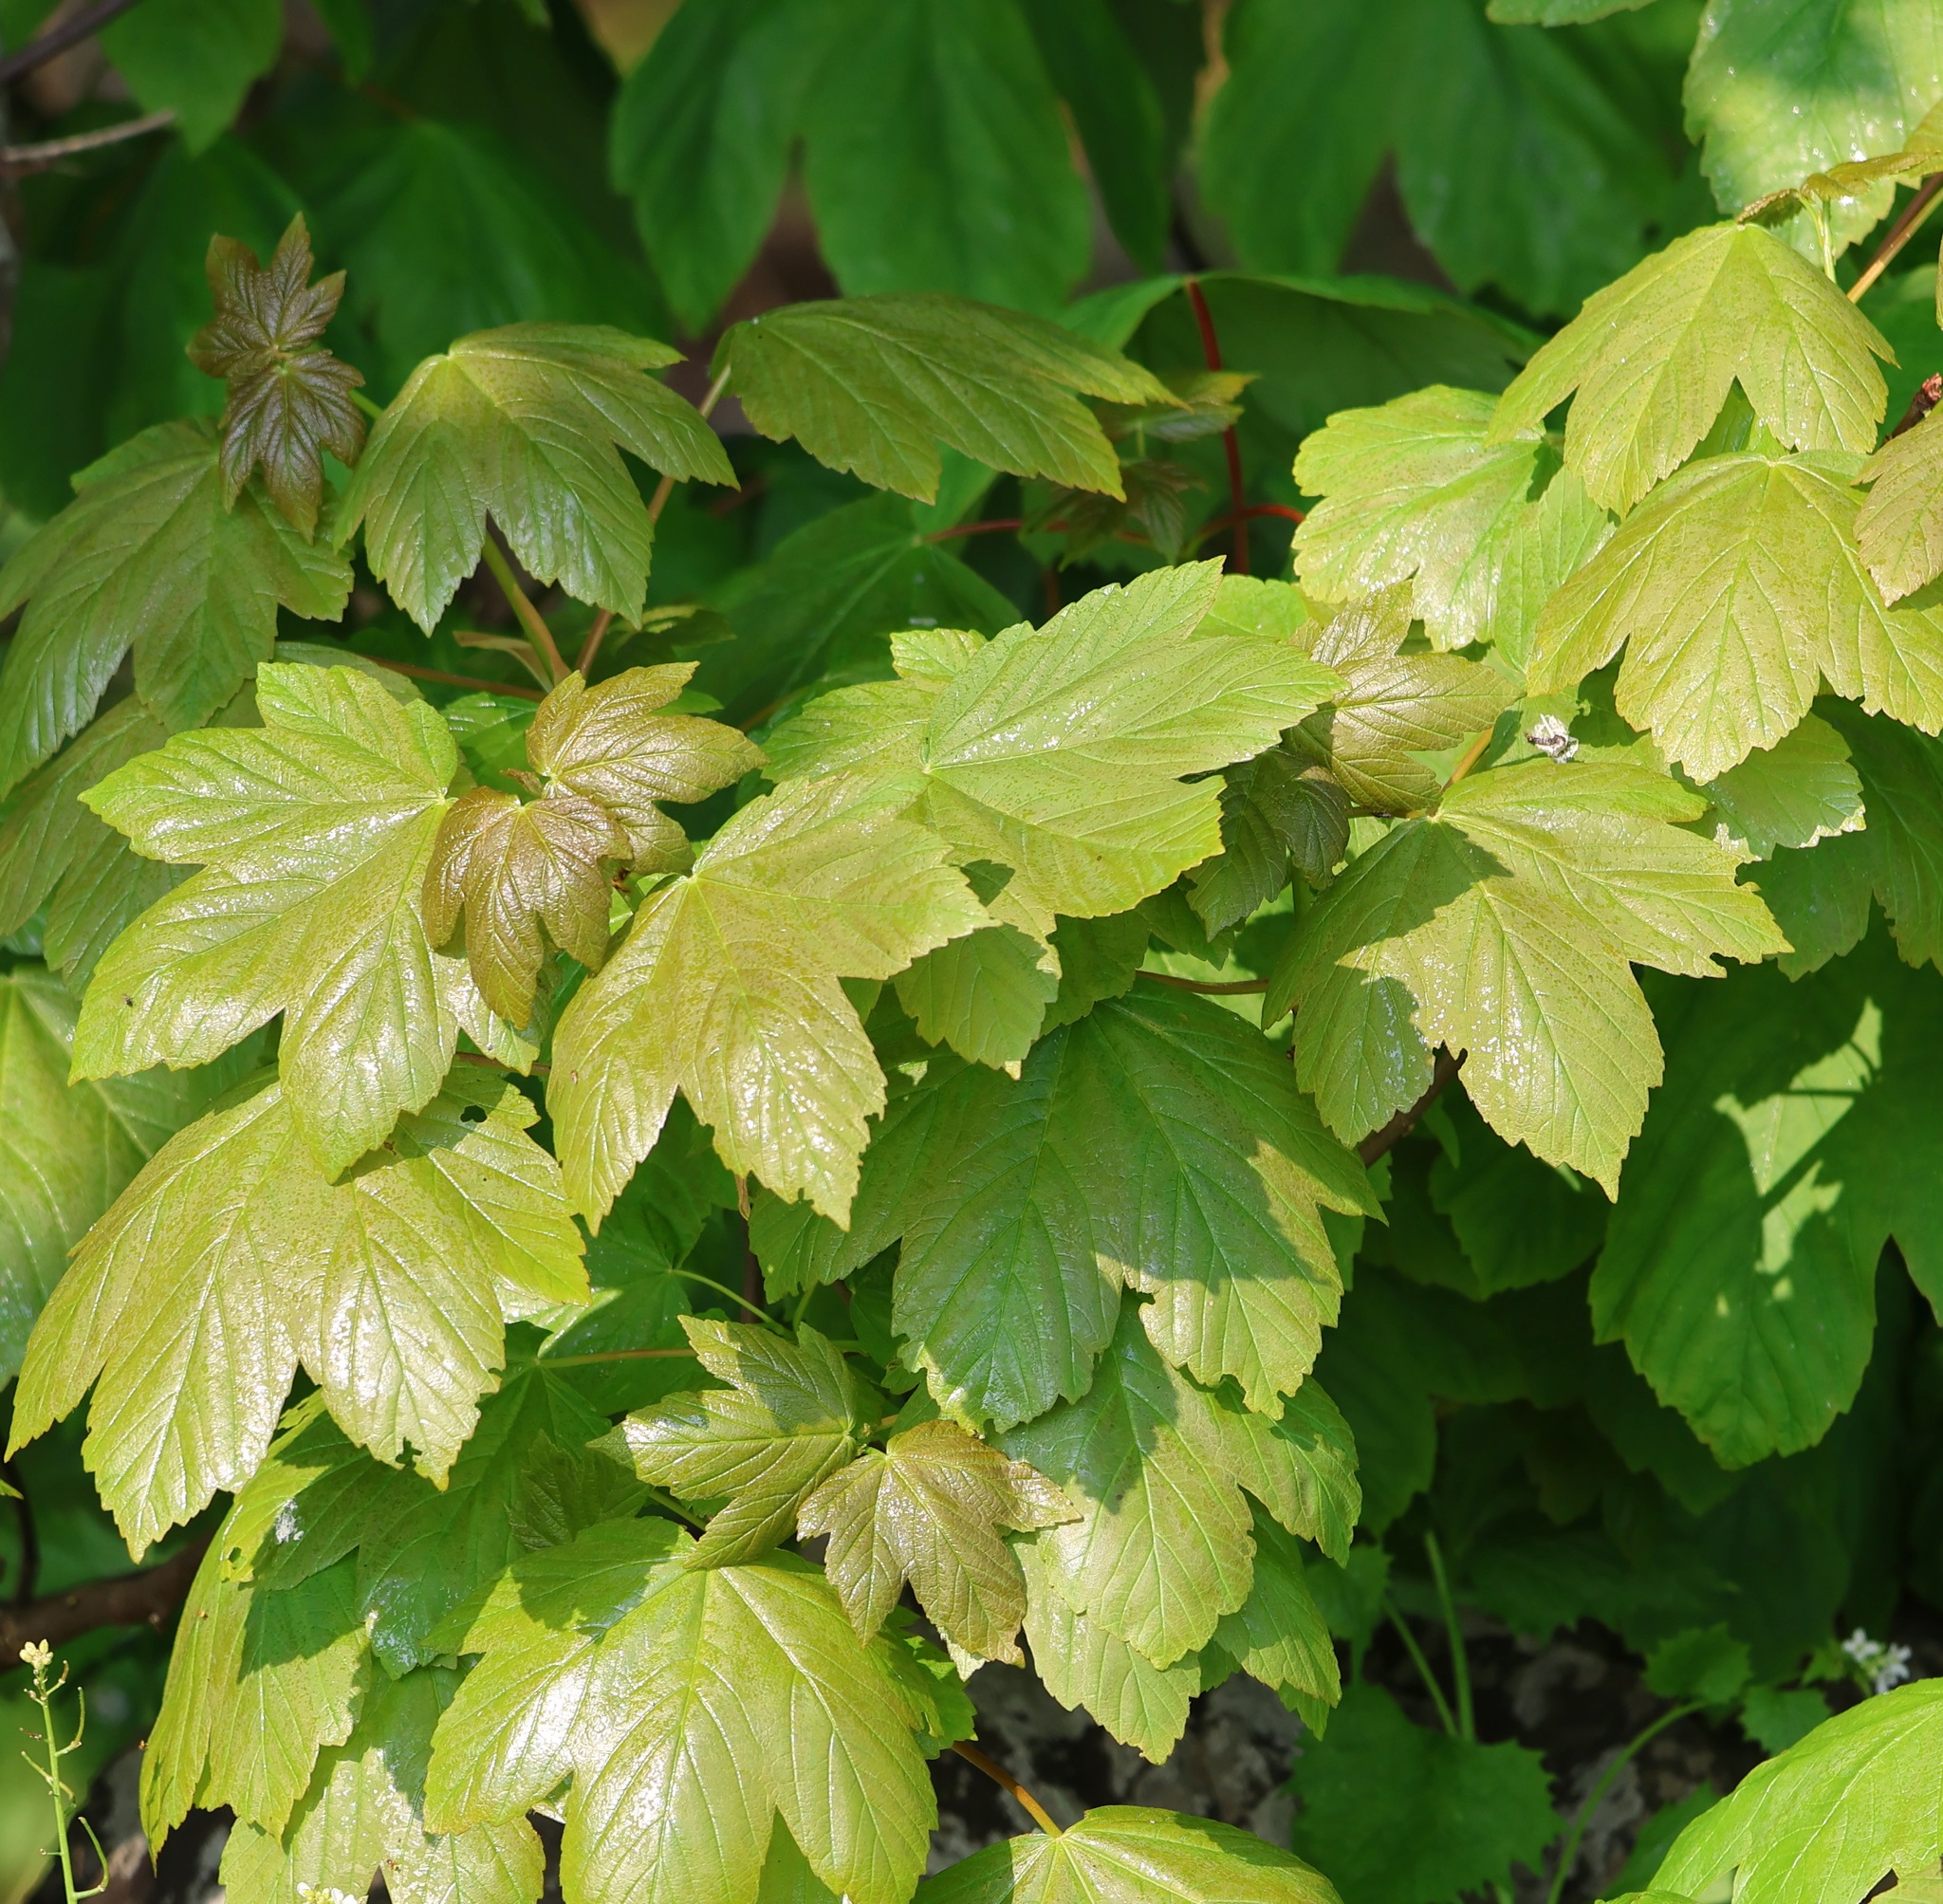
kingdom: Plantae
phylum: Tracheophyta
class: Magnoliopsida
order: Sapindales
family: Sapindaceae
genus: Acer
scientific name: Acer pseudoplatanus
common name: Sycamore
